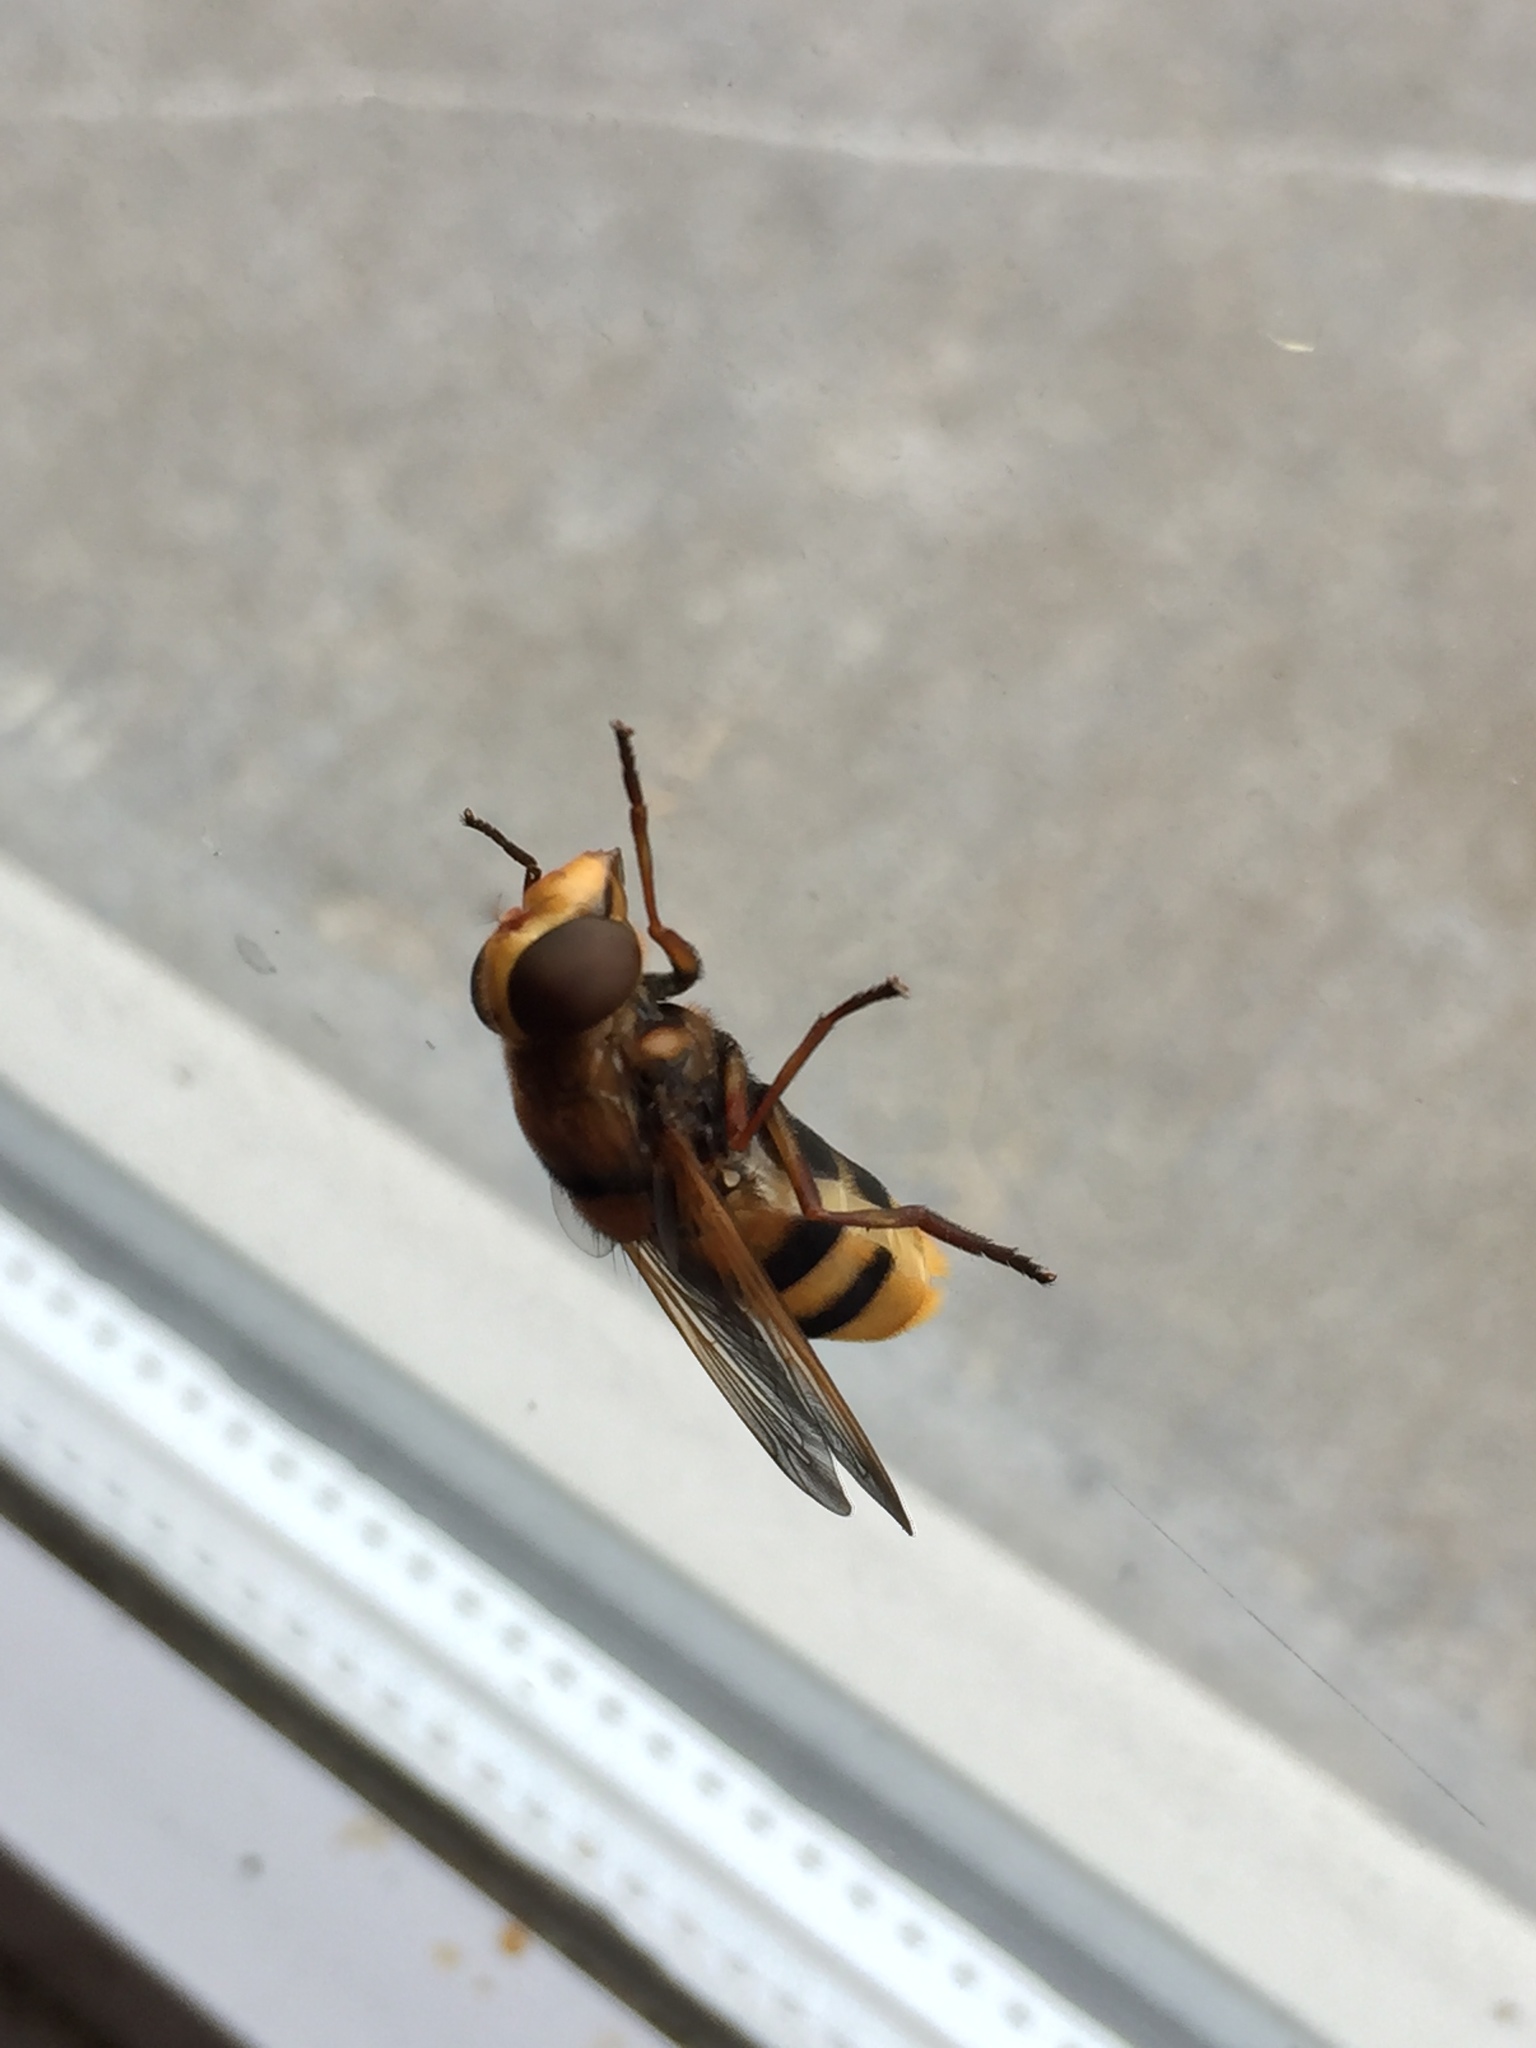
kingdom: Animalia
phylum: Arthropoda
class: Insecta
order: Diptera
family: Syrphidae
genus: Volucella
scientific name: Volucella zonaria
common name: Hornet hoverfly
